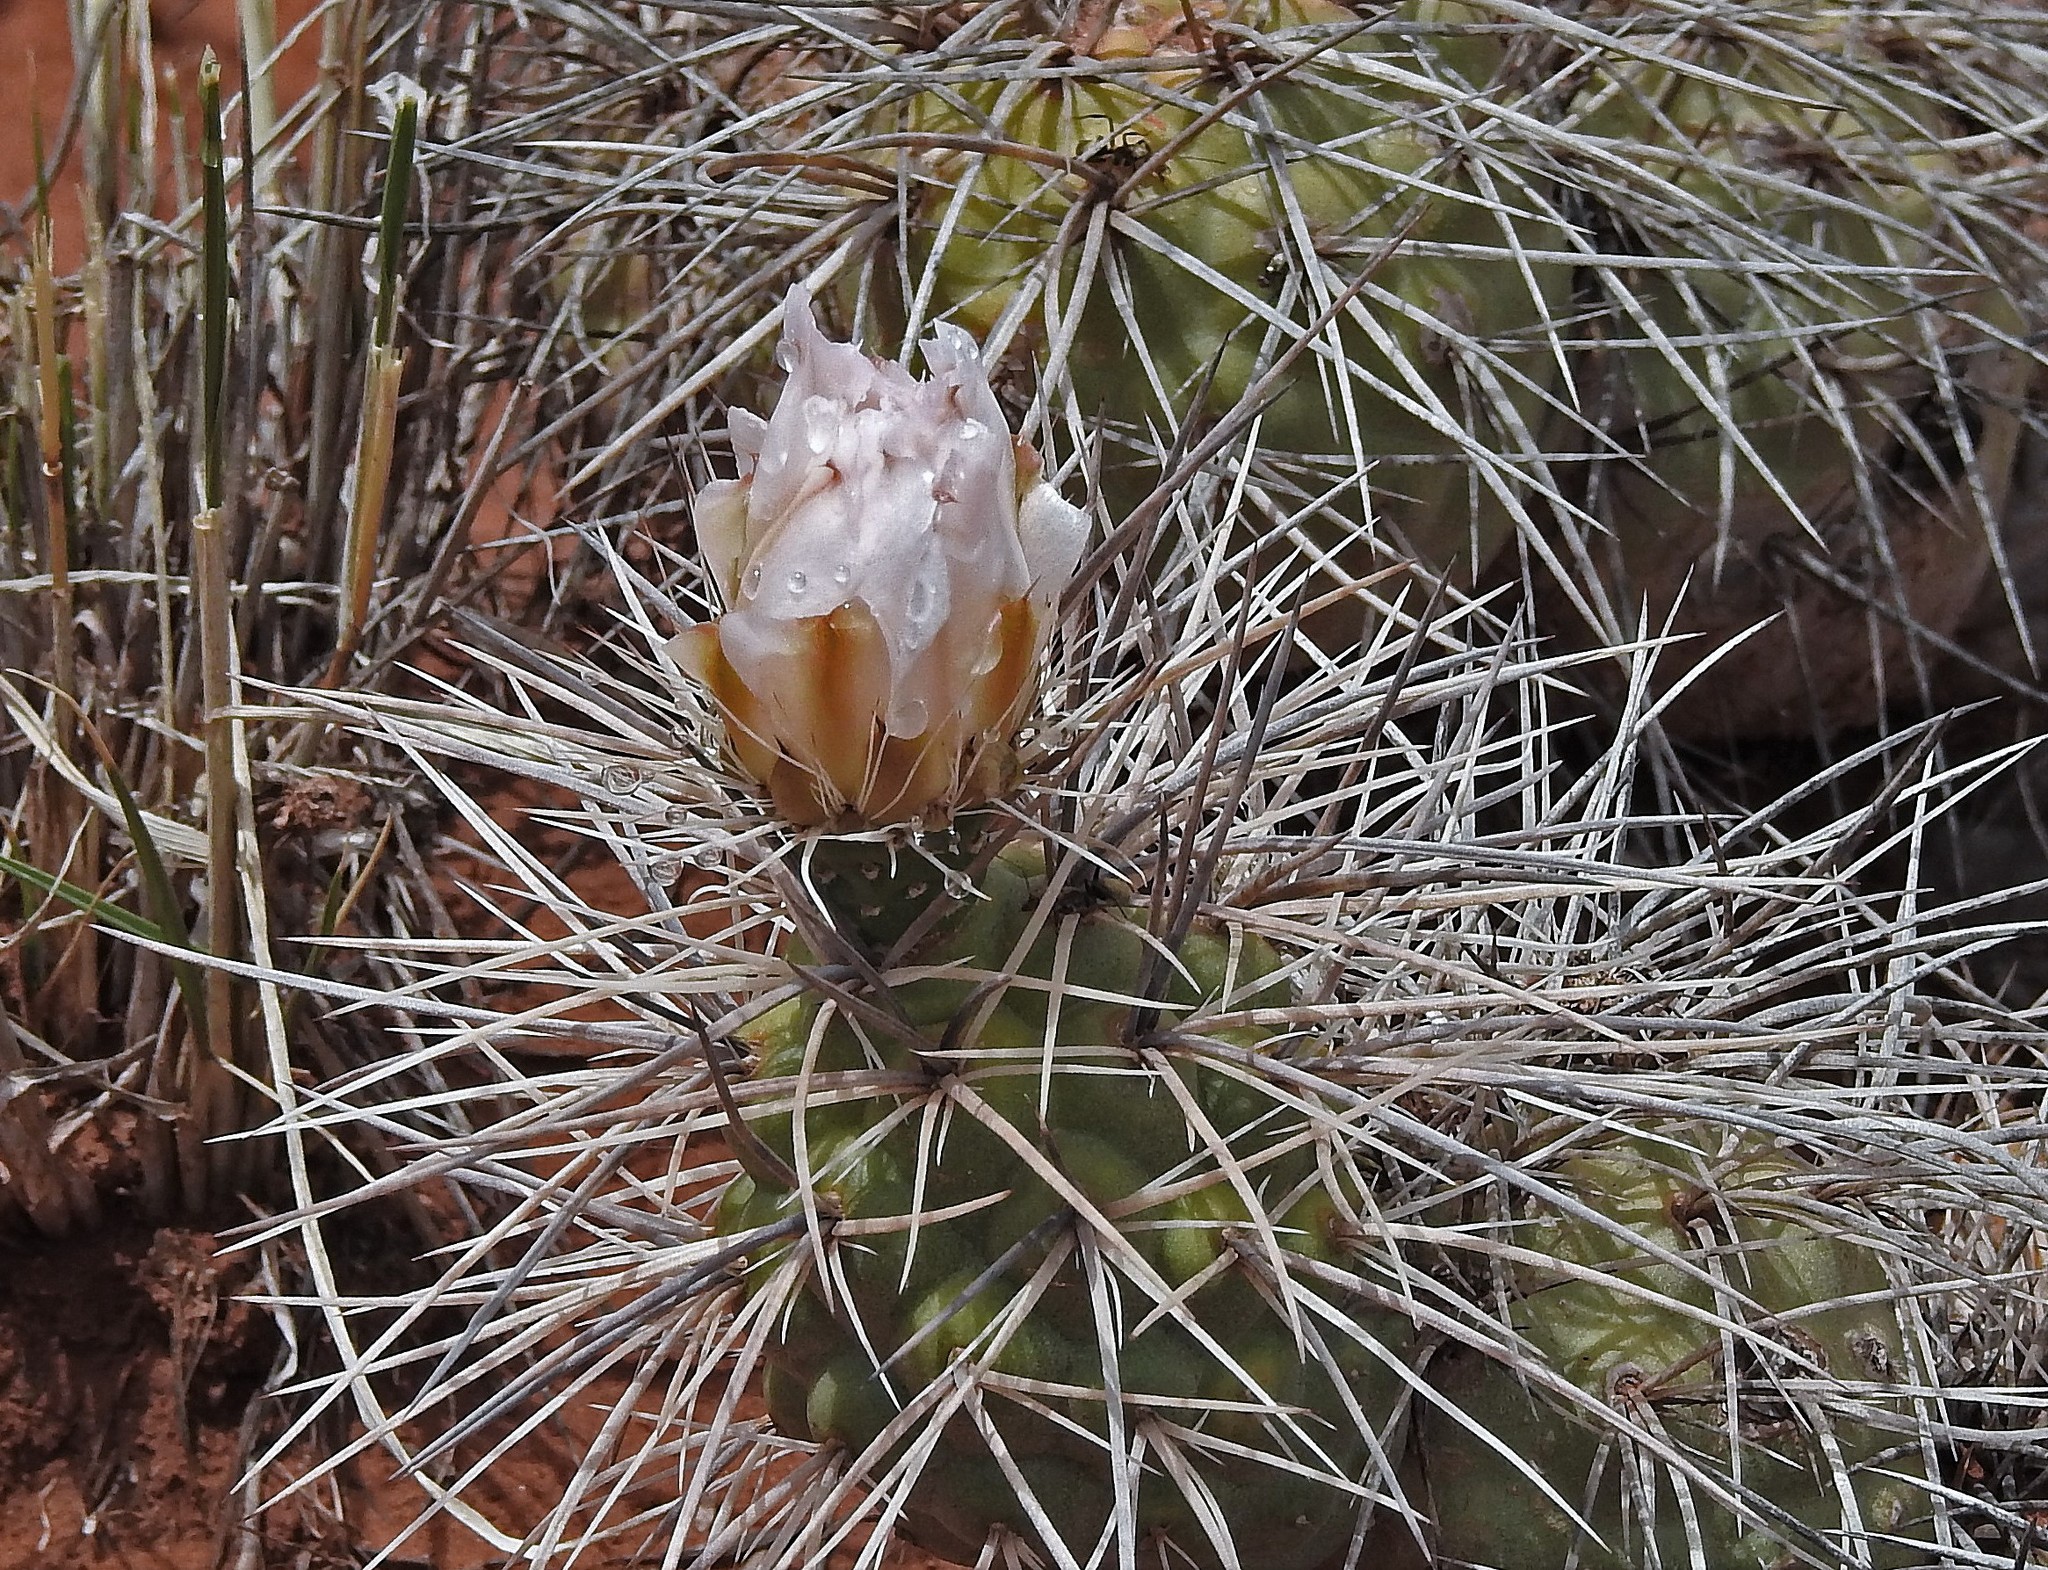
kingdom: Plantae
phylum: Tracheophyta
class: Magnoliopsida
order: Caryophyllales
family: Cactaceae
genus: Tephrocactus
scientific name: Tephrocactus alexanderi
